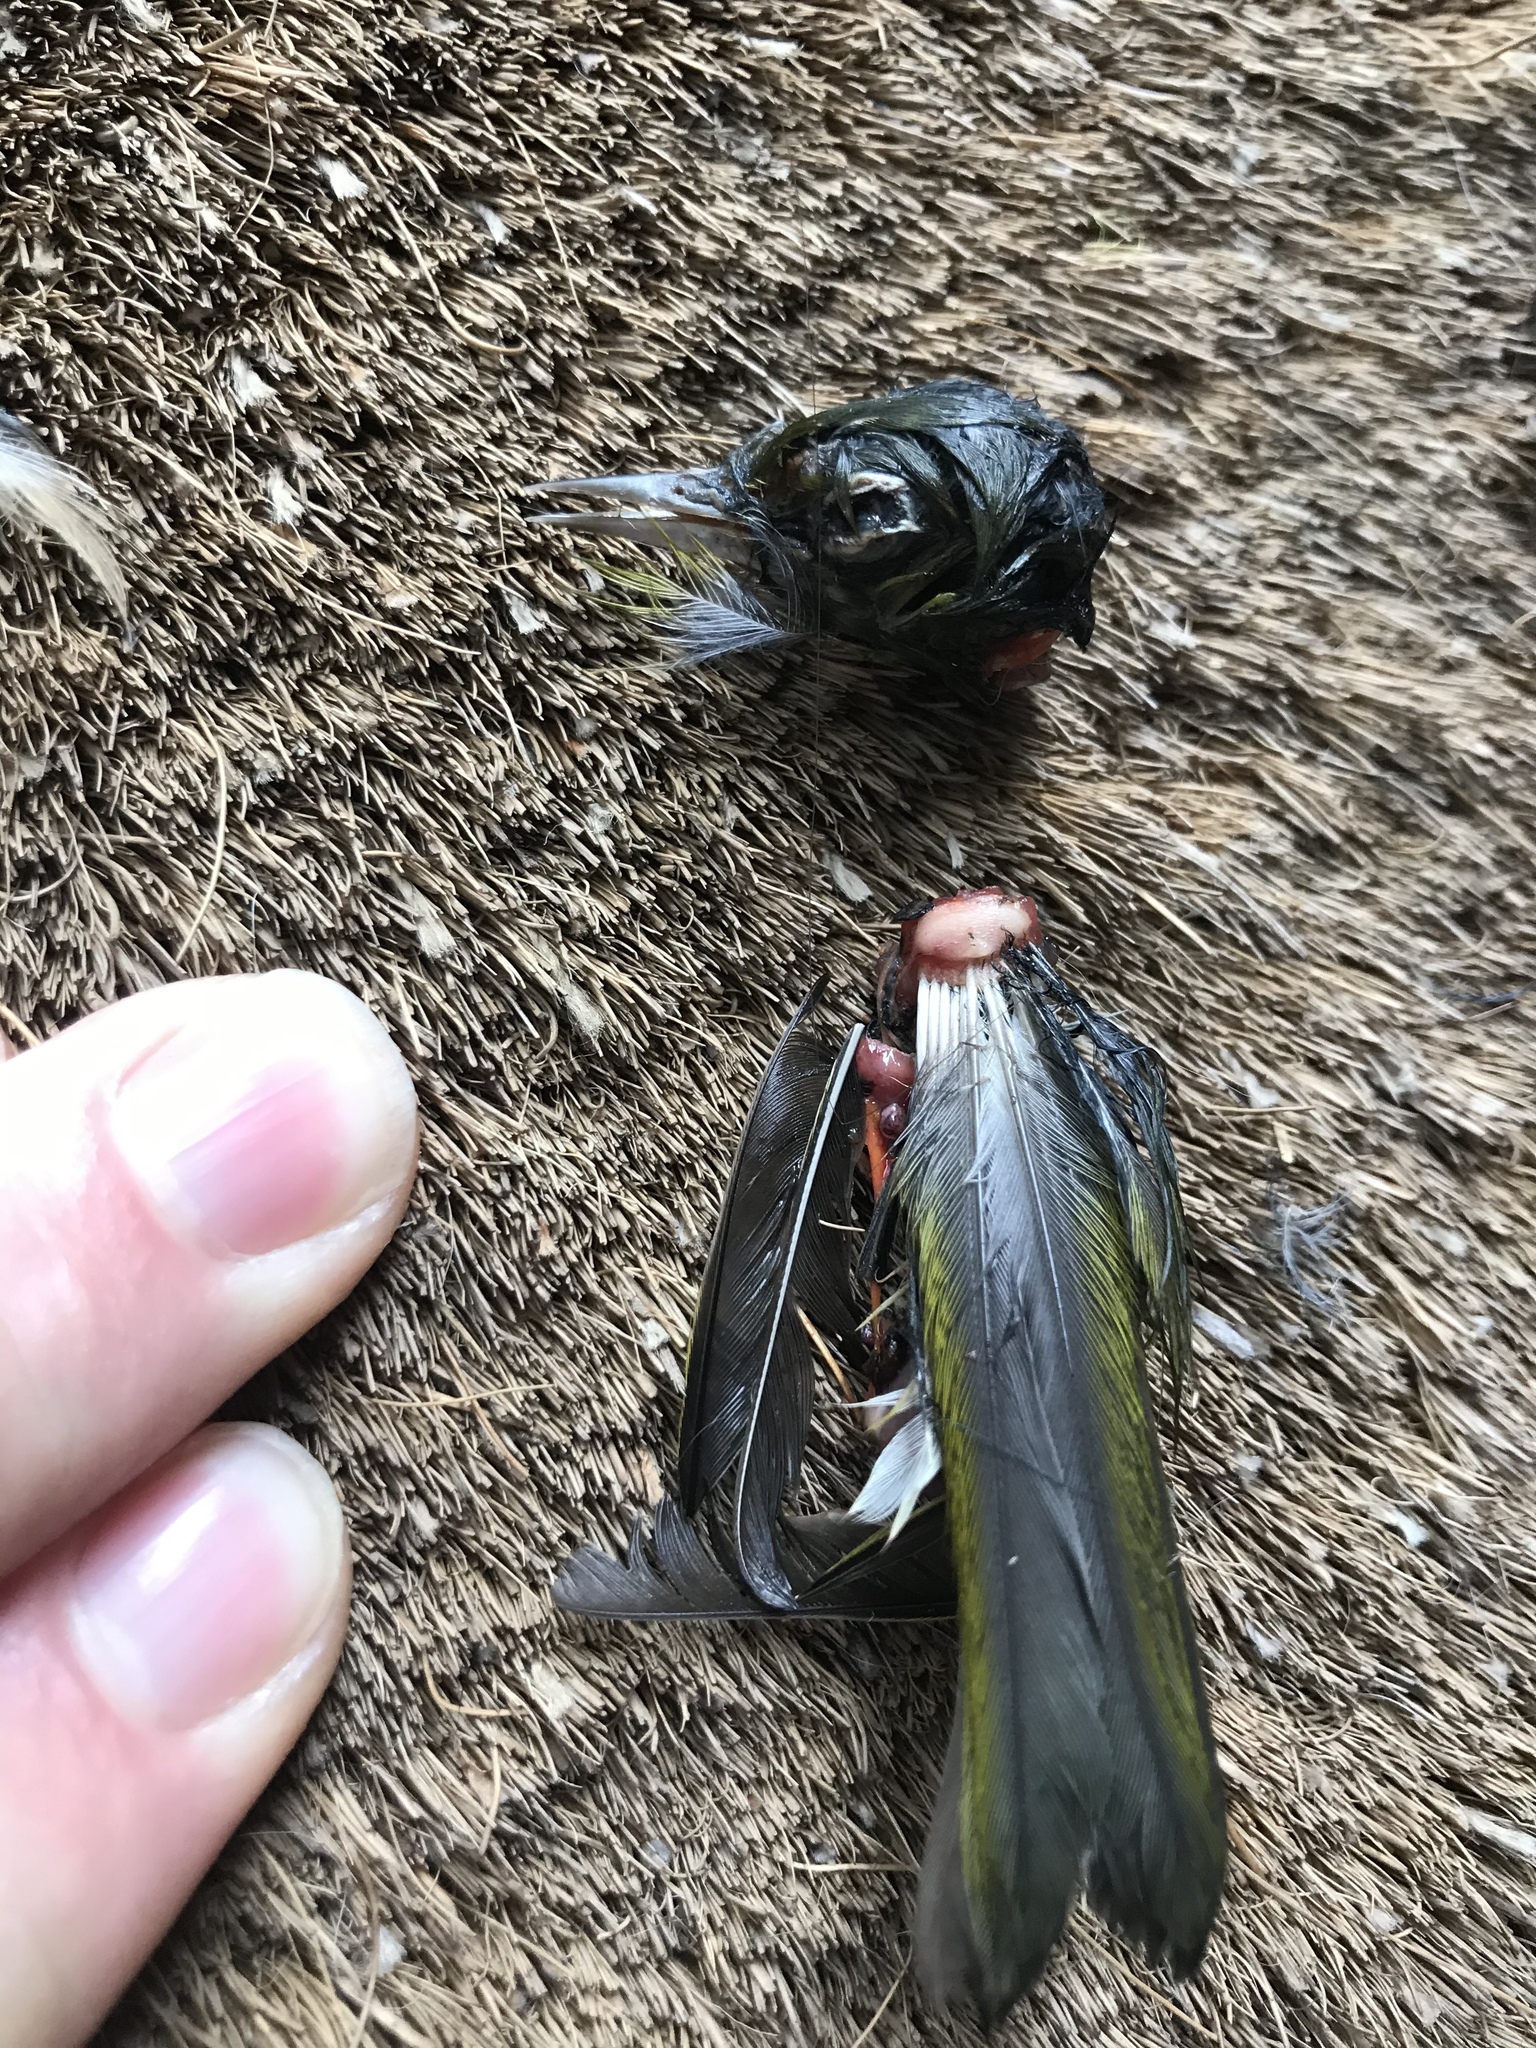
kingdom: Animalia
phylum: Chordata
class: Aves
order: Passeriformes
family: Zosteropidae
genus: Zosterops
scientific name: Zosterops lateralis
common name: Silvereye
